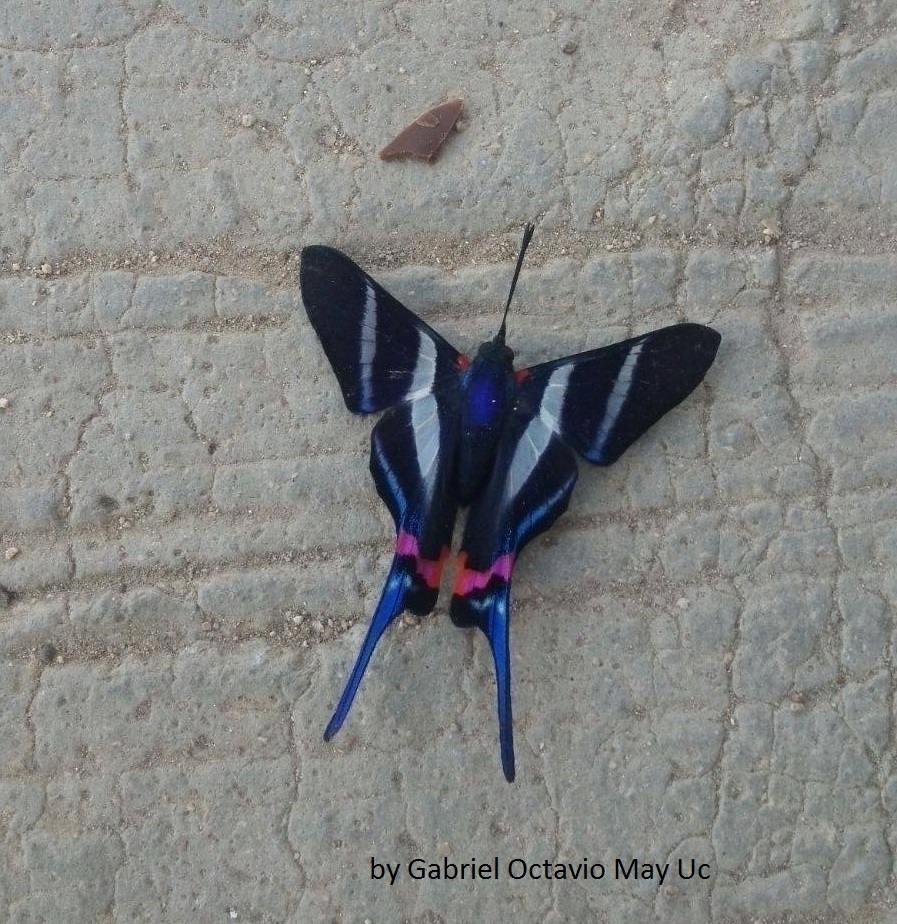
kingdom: Animalia
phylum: Arthropoda
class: Insecta
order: Lepidoptera
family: Riodinidae
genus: Rhetus
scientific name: Rhetus arcius
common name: Long-tailed metalmark
